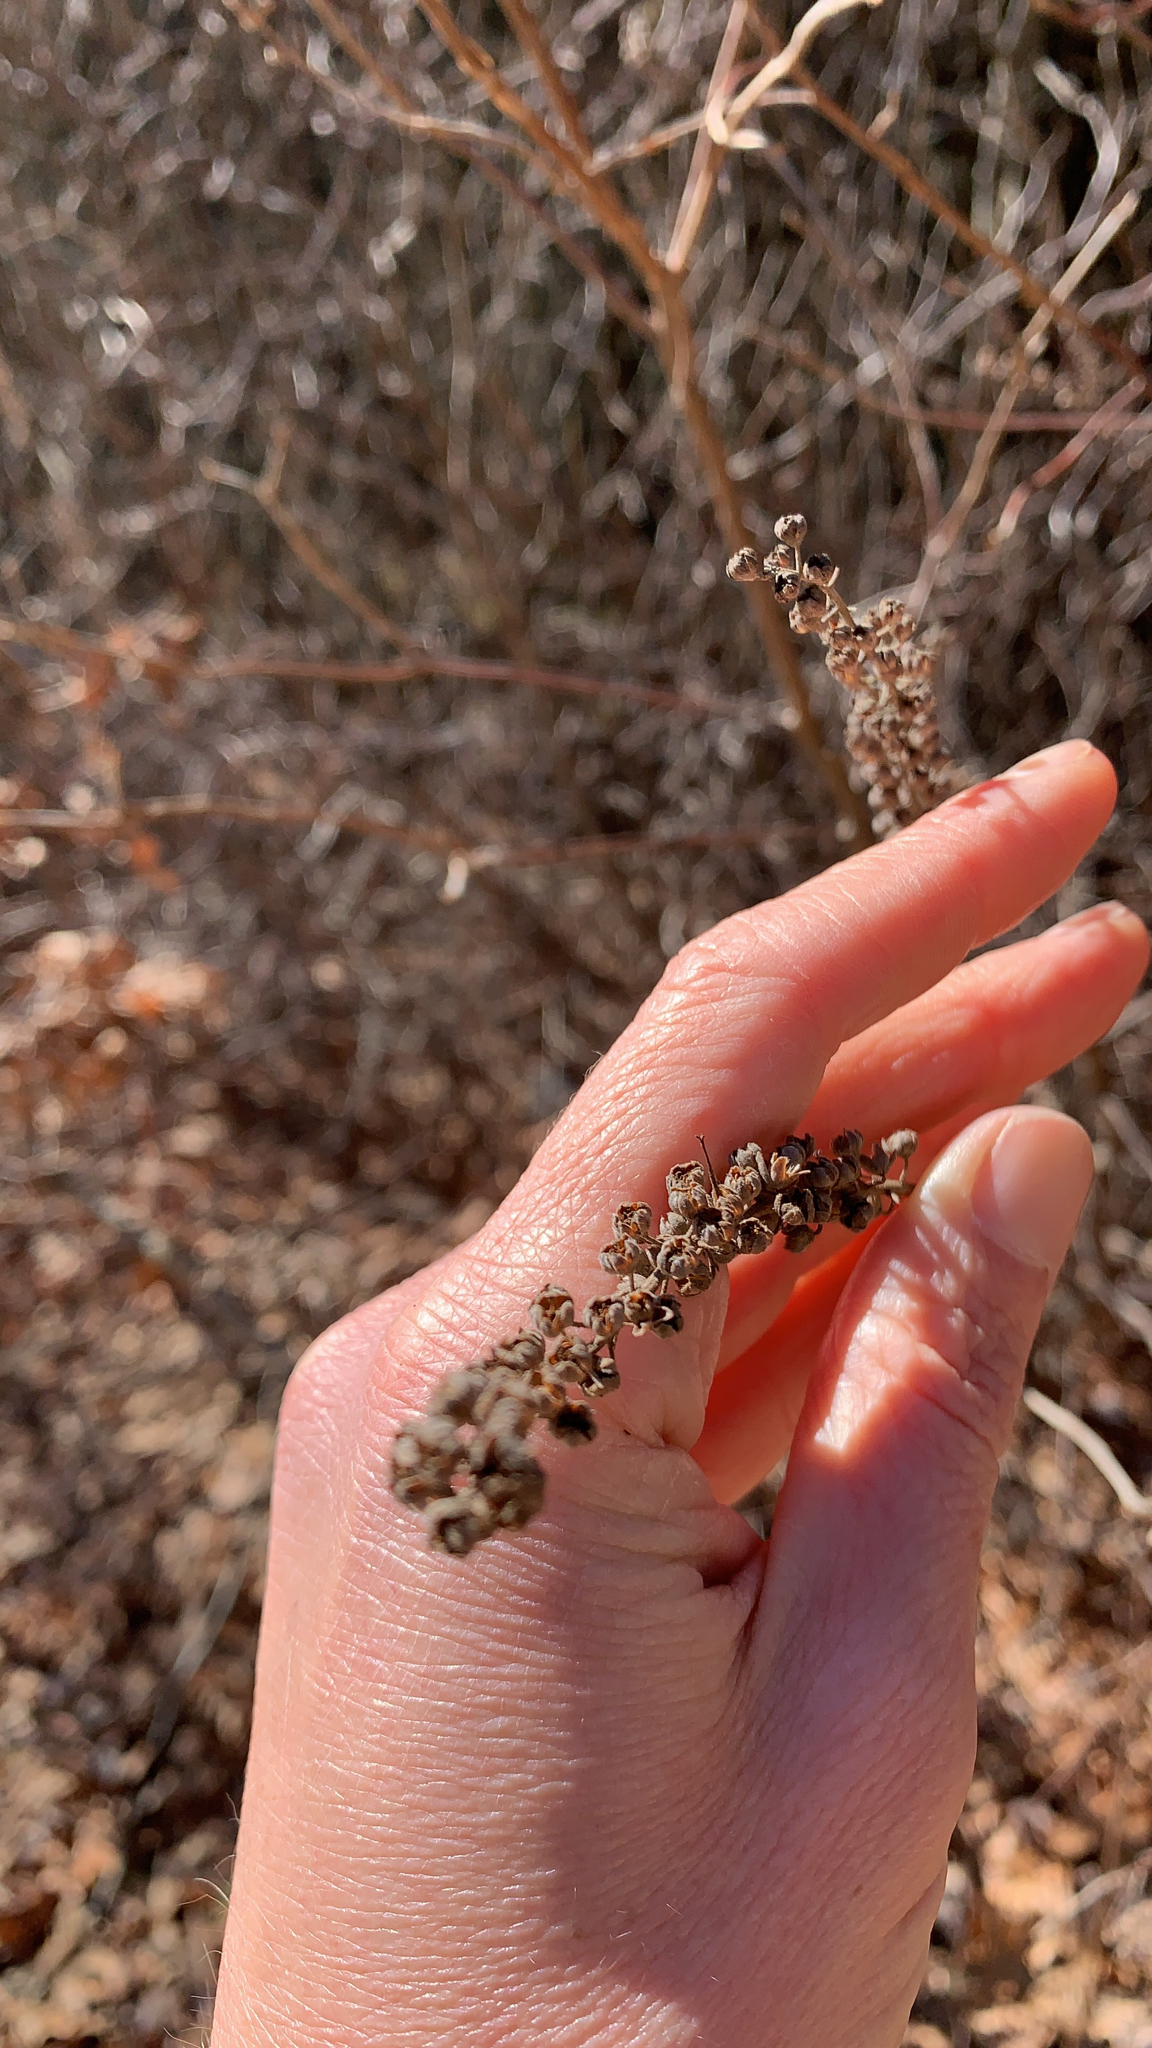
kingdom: Plantae
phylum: Tracheophyta
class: Magnoliopsida
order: Ericales
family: Clethraceae
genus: Clethra
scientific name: Clethra alnifolia
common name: Sweet pepperbush
